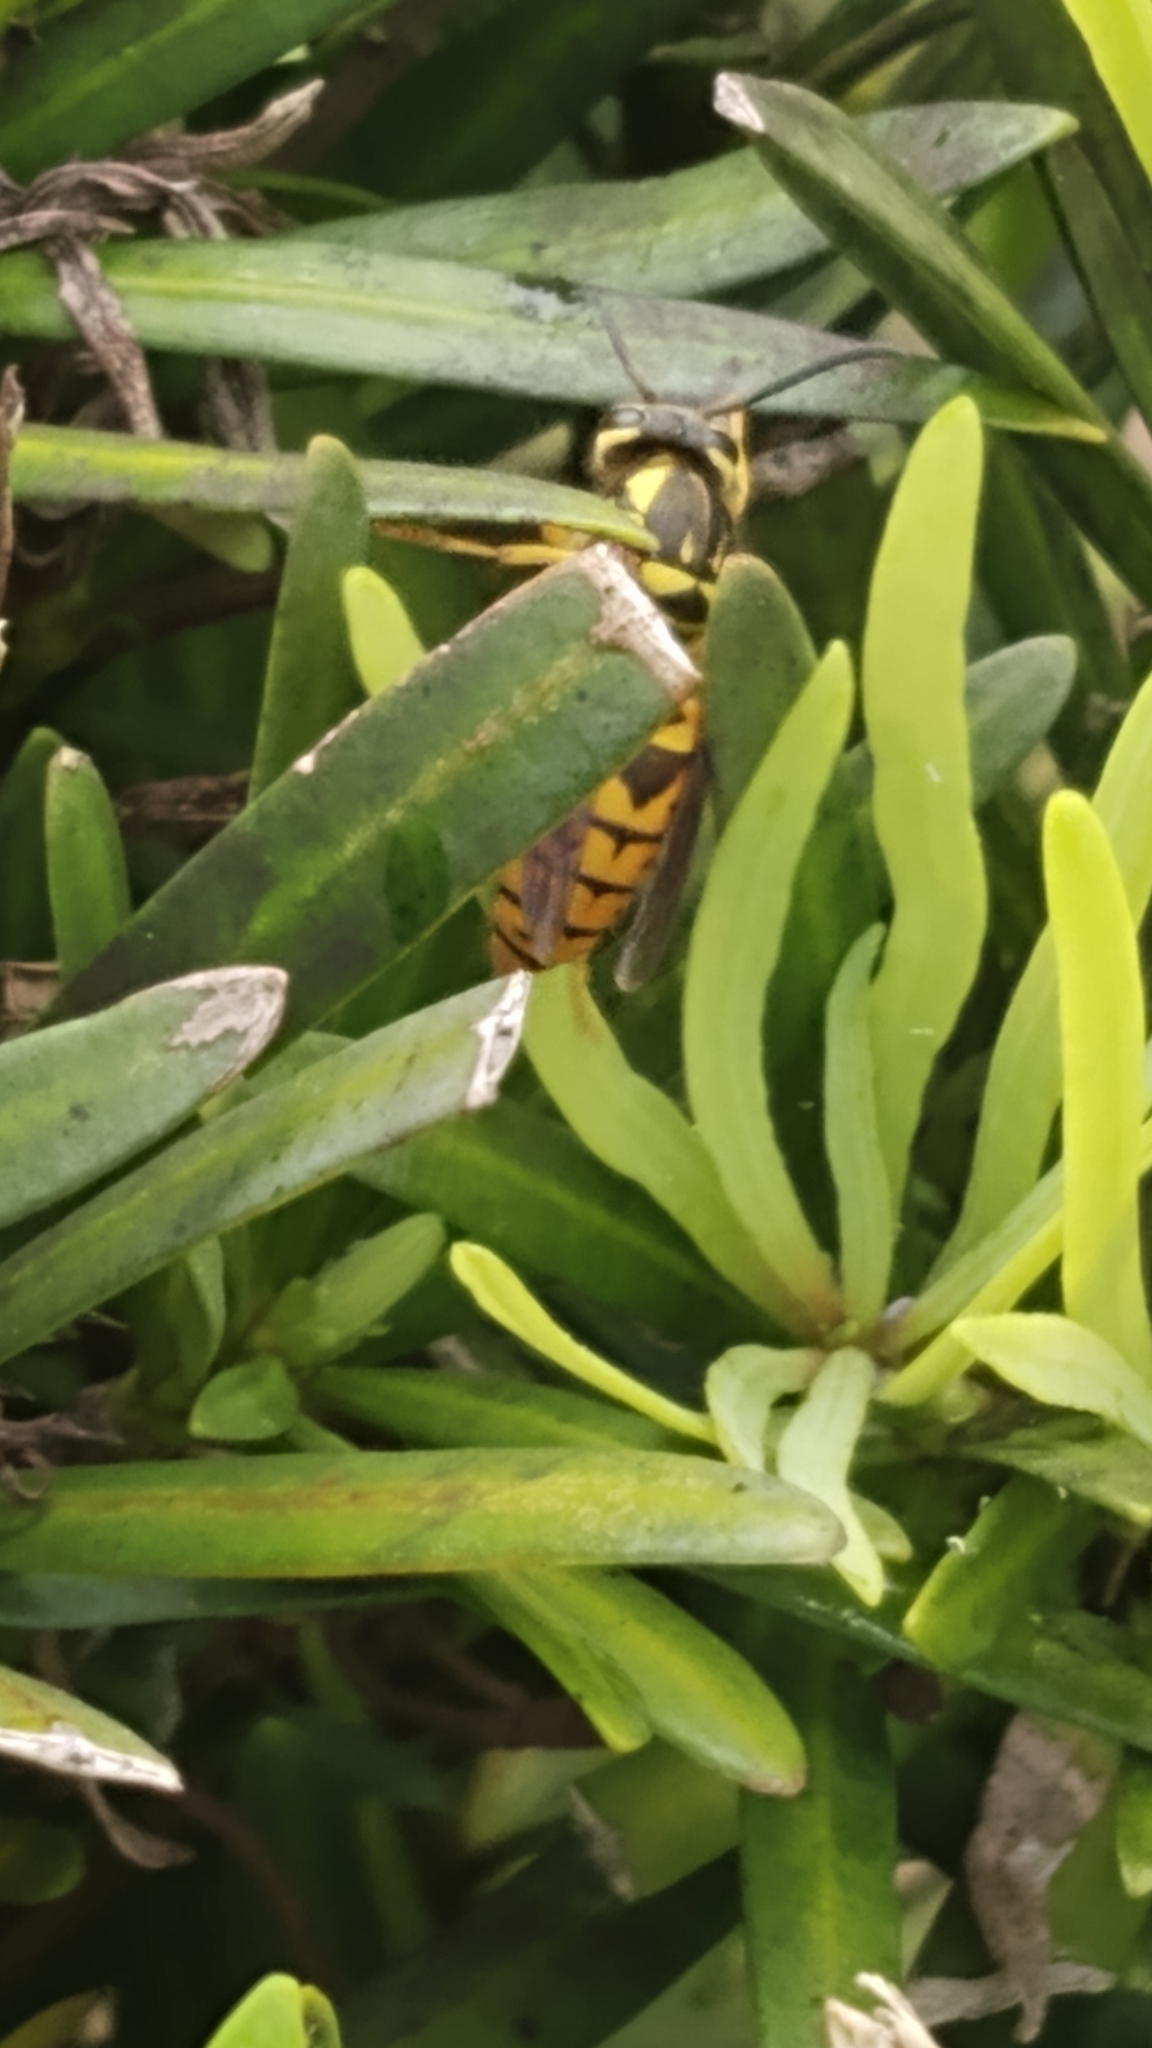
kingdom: Animalia
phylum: Arthropoda
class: Insecta
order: Hymenoptera
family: Vespidae
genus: Vespula
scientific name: Vespula maculifrons
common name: Eastern yellowjacket
